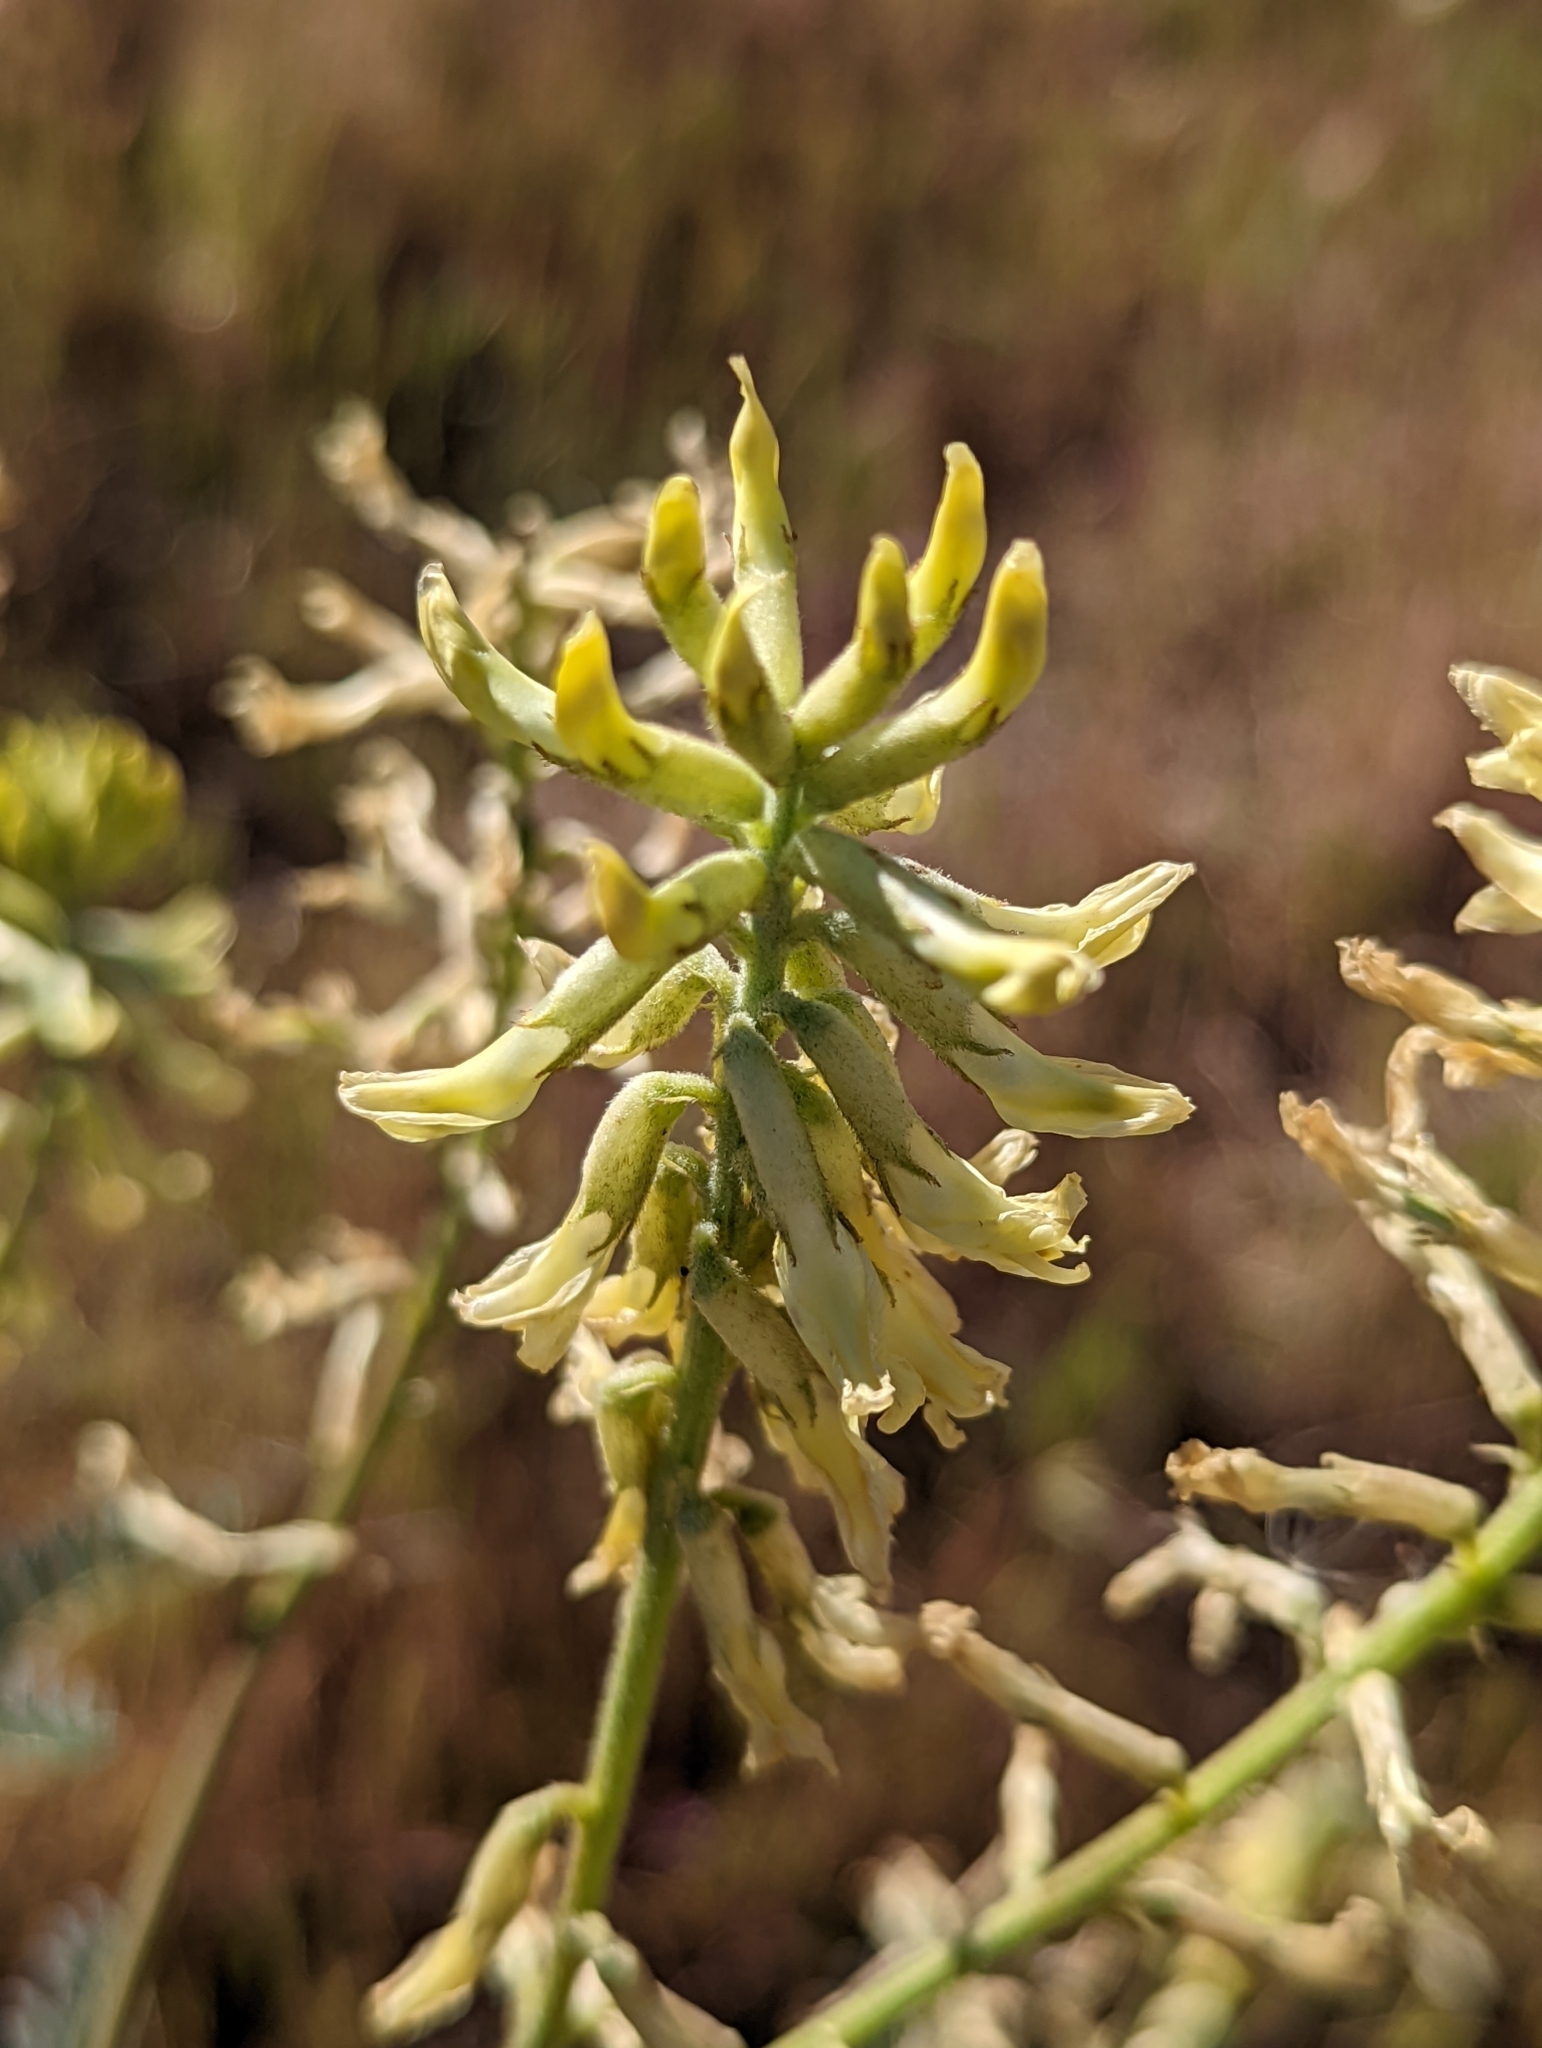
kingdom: Plantae
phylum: Tracheophyta
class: Magnoliopsida
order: Fabales
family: Fabaceae
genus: Astragalus
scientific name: Astragalus oxyphysus
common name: Stanislaus milk-vetch
